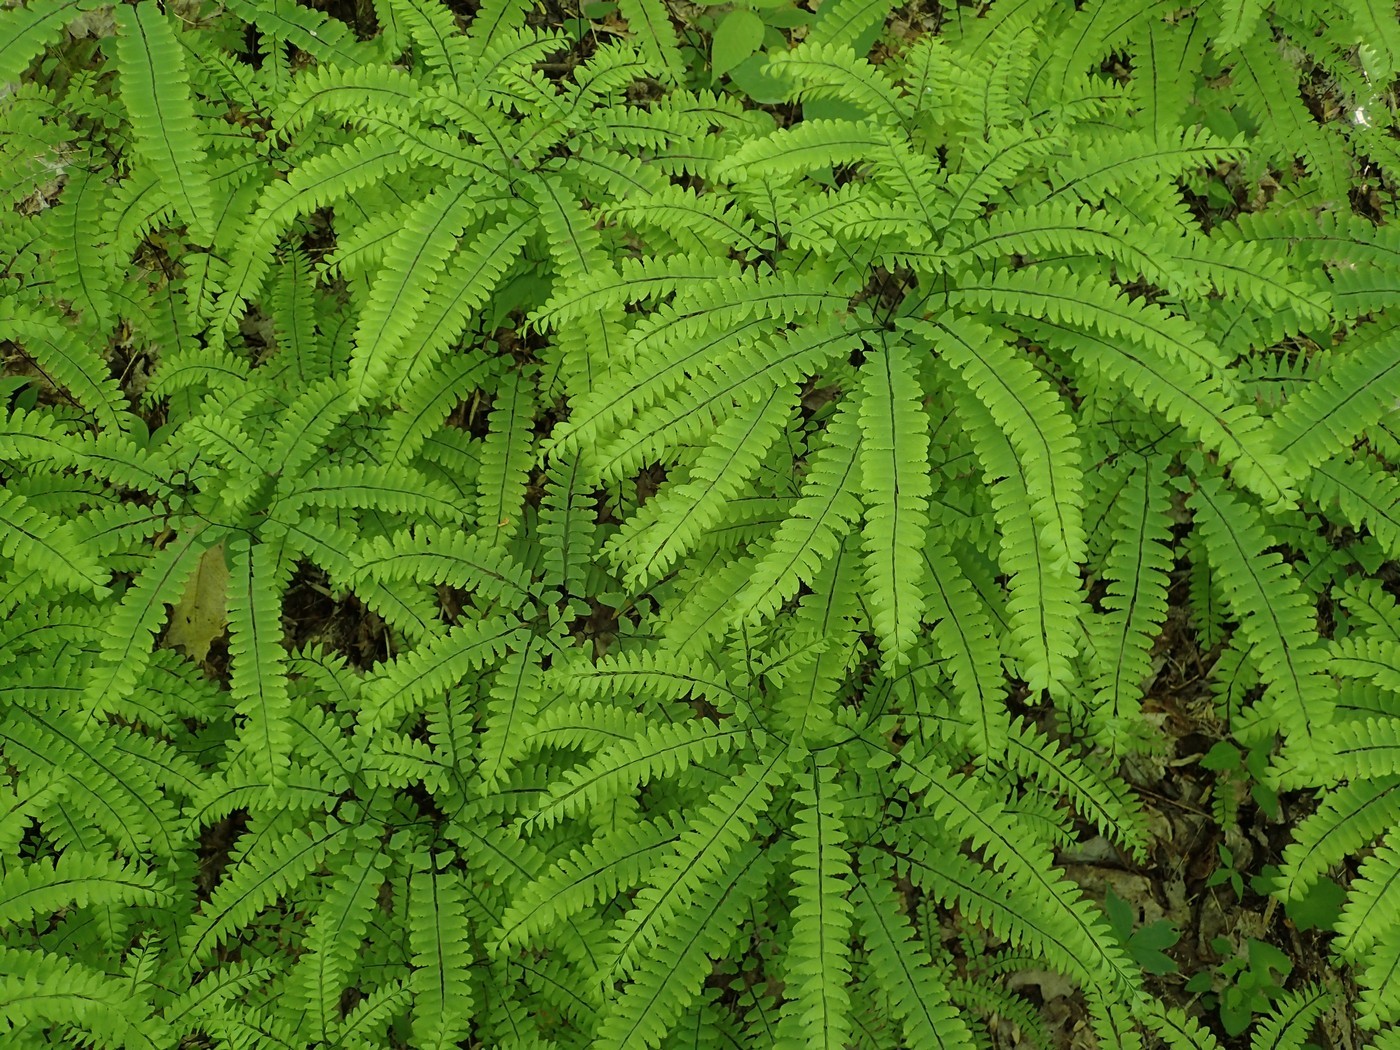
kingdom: Plantae
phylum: Tracheophyta
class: Polypodiopsida
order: Polypodiales
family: Pteridaceae
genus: Adiantum
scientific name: Adiantum pedatum
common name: Five-finger fern
